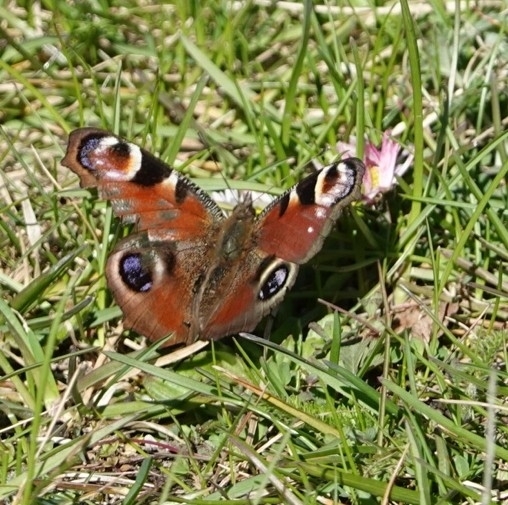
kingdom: Animalia
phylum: Arthropoda
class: Insecta
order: Lepidoptera
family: Nymphalidae
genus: Aglais
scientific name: Aglais io
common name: Peacock
